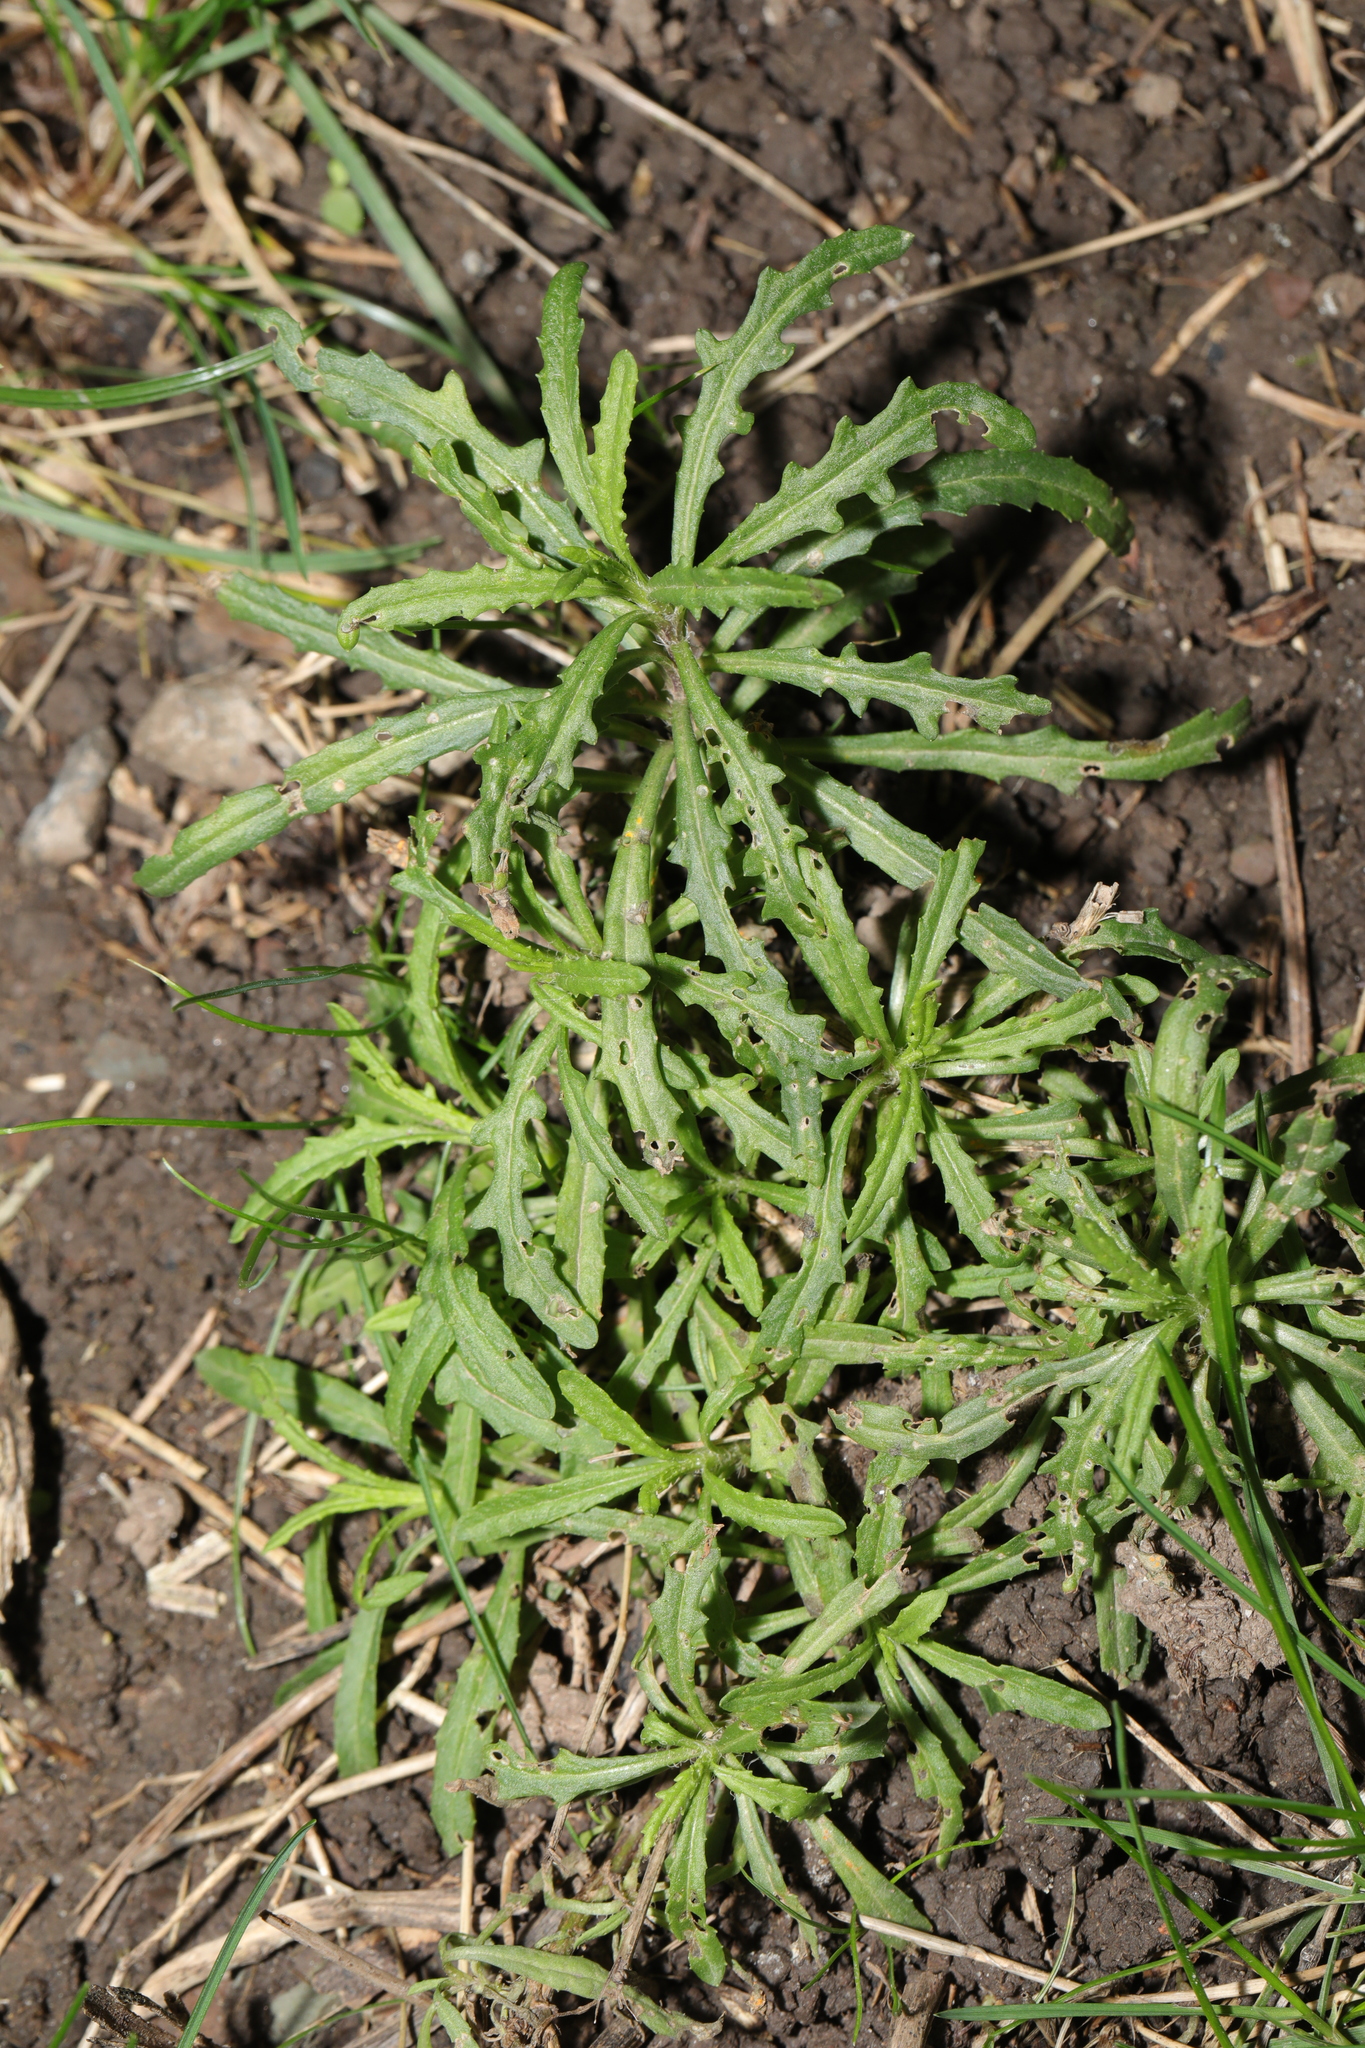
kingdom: Plantae
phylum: Tracheophyta
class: Magnoliopsida
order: Asterales
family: Asteraceae
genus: Senecio
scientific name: Senecio inaequidens
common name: Narrow-leaved ragwort
